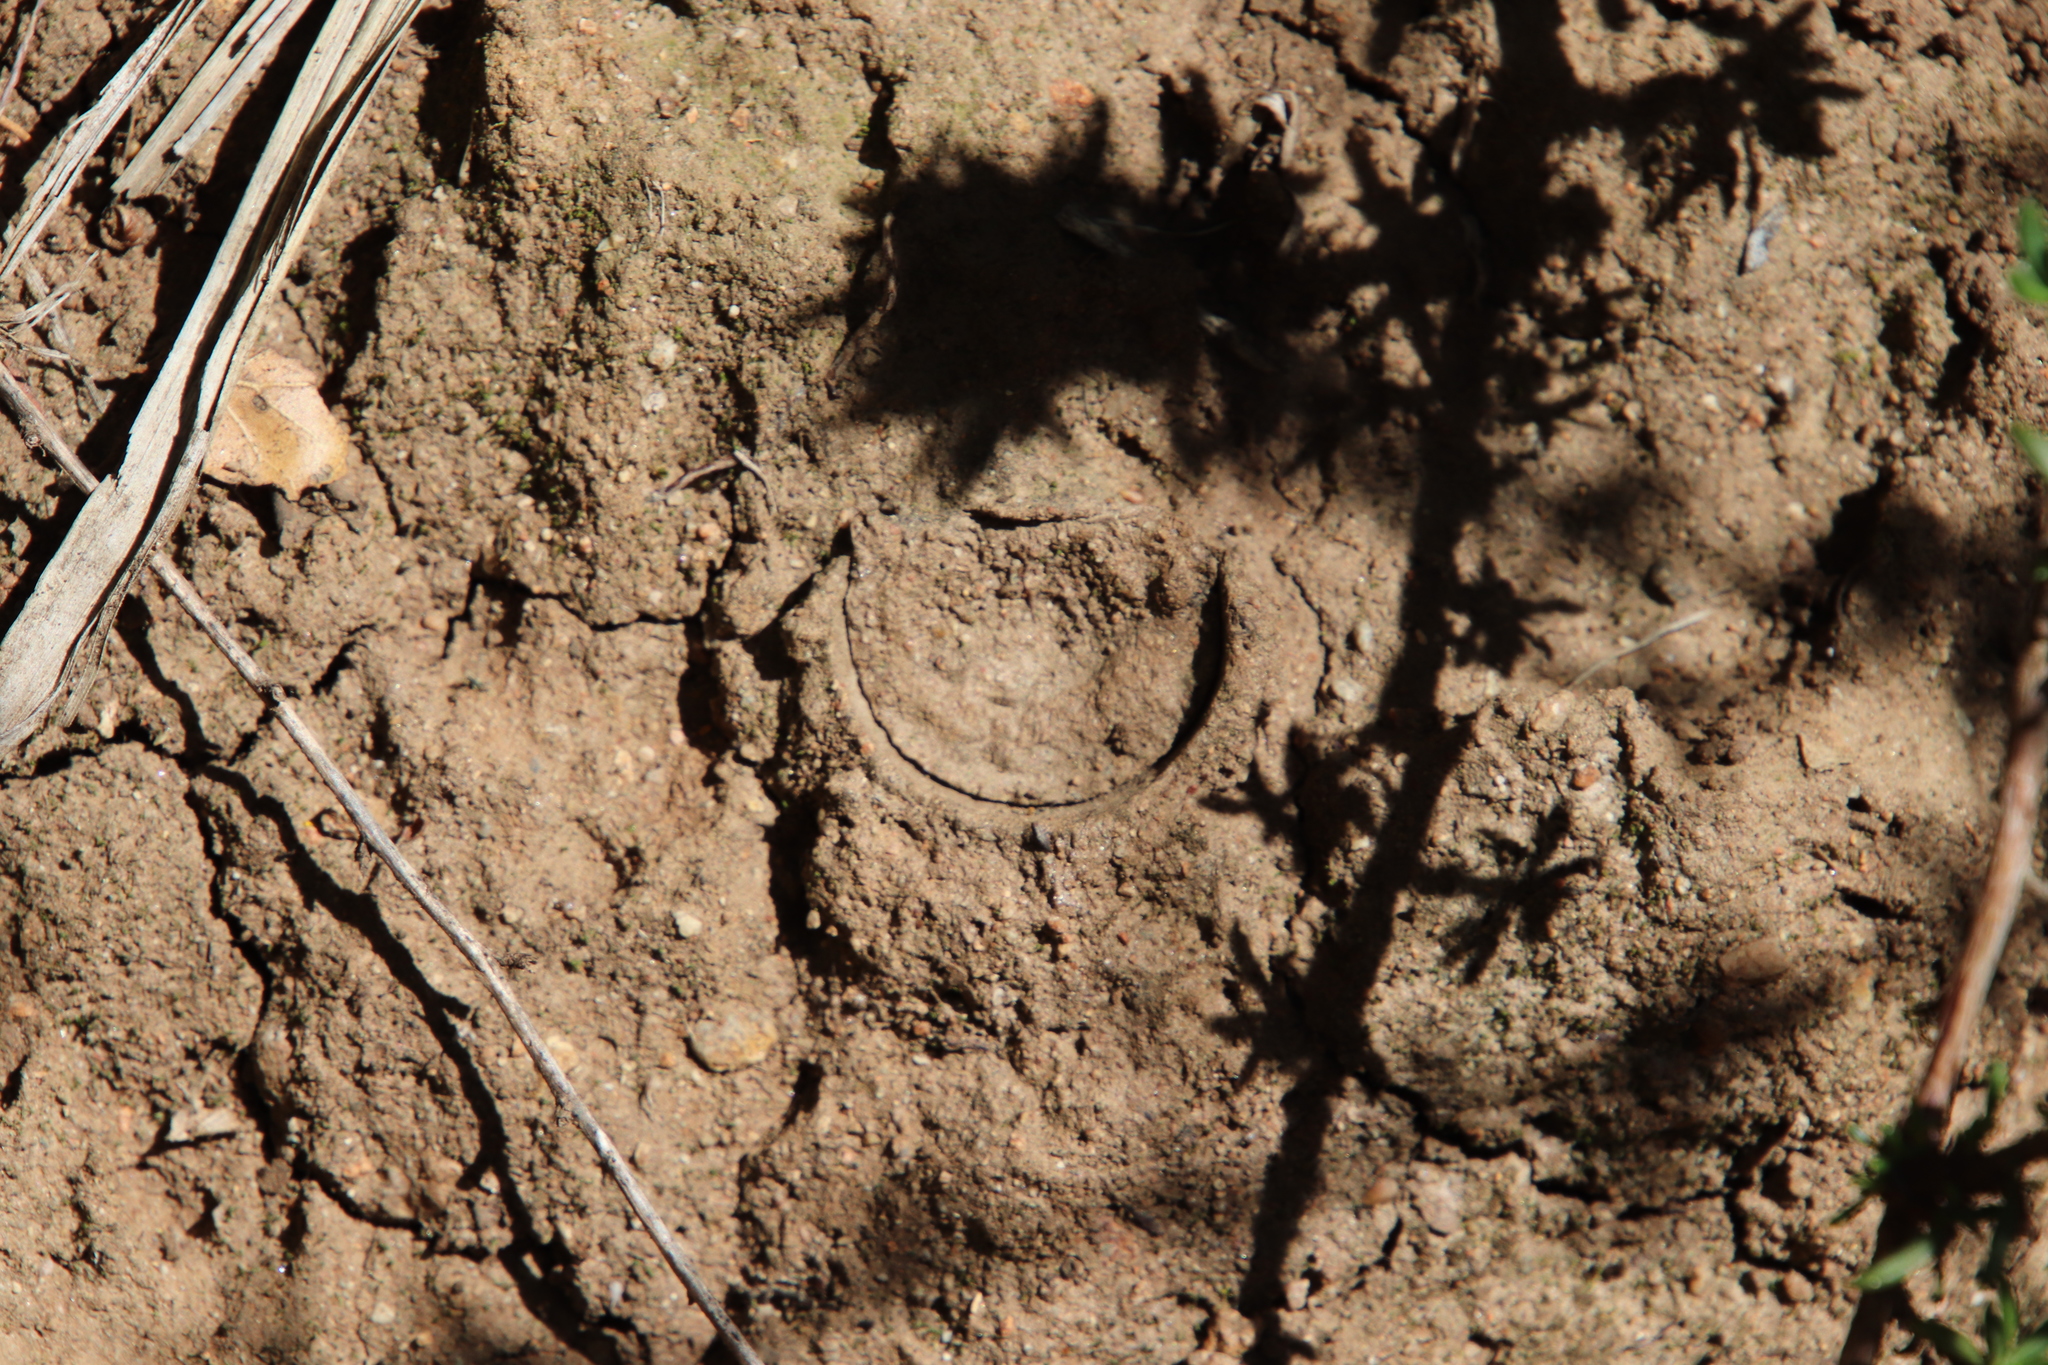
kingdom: Animalia
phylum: Arthropoda
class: Arachnida
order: Araneae
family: Halonoproctidae
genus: Bothriocyrtum
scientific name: Bothriocyrtum californicum
